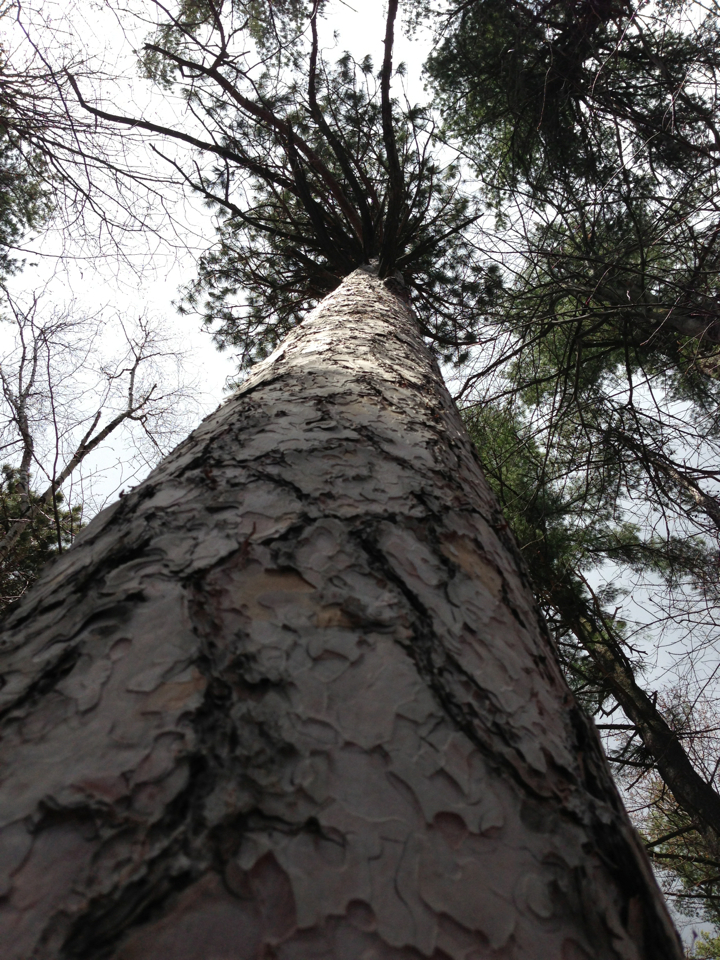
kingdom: Plantae
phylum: Tracheophyta
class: Pinopsida
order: Pinales
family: Pinaceae
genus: Pinus
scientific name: Pinus resinosa
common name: Norway pine
